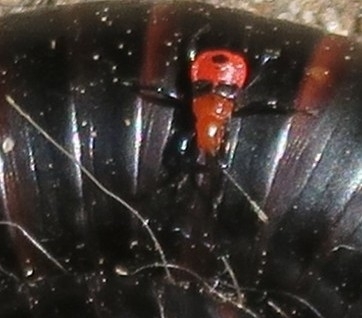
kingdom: Animalia
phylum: Arthropoda
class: Insecta
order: Hemiptera
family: Reduviidae
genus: Ectrichodia
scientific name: Ectrichodia crux
